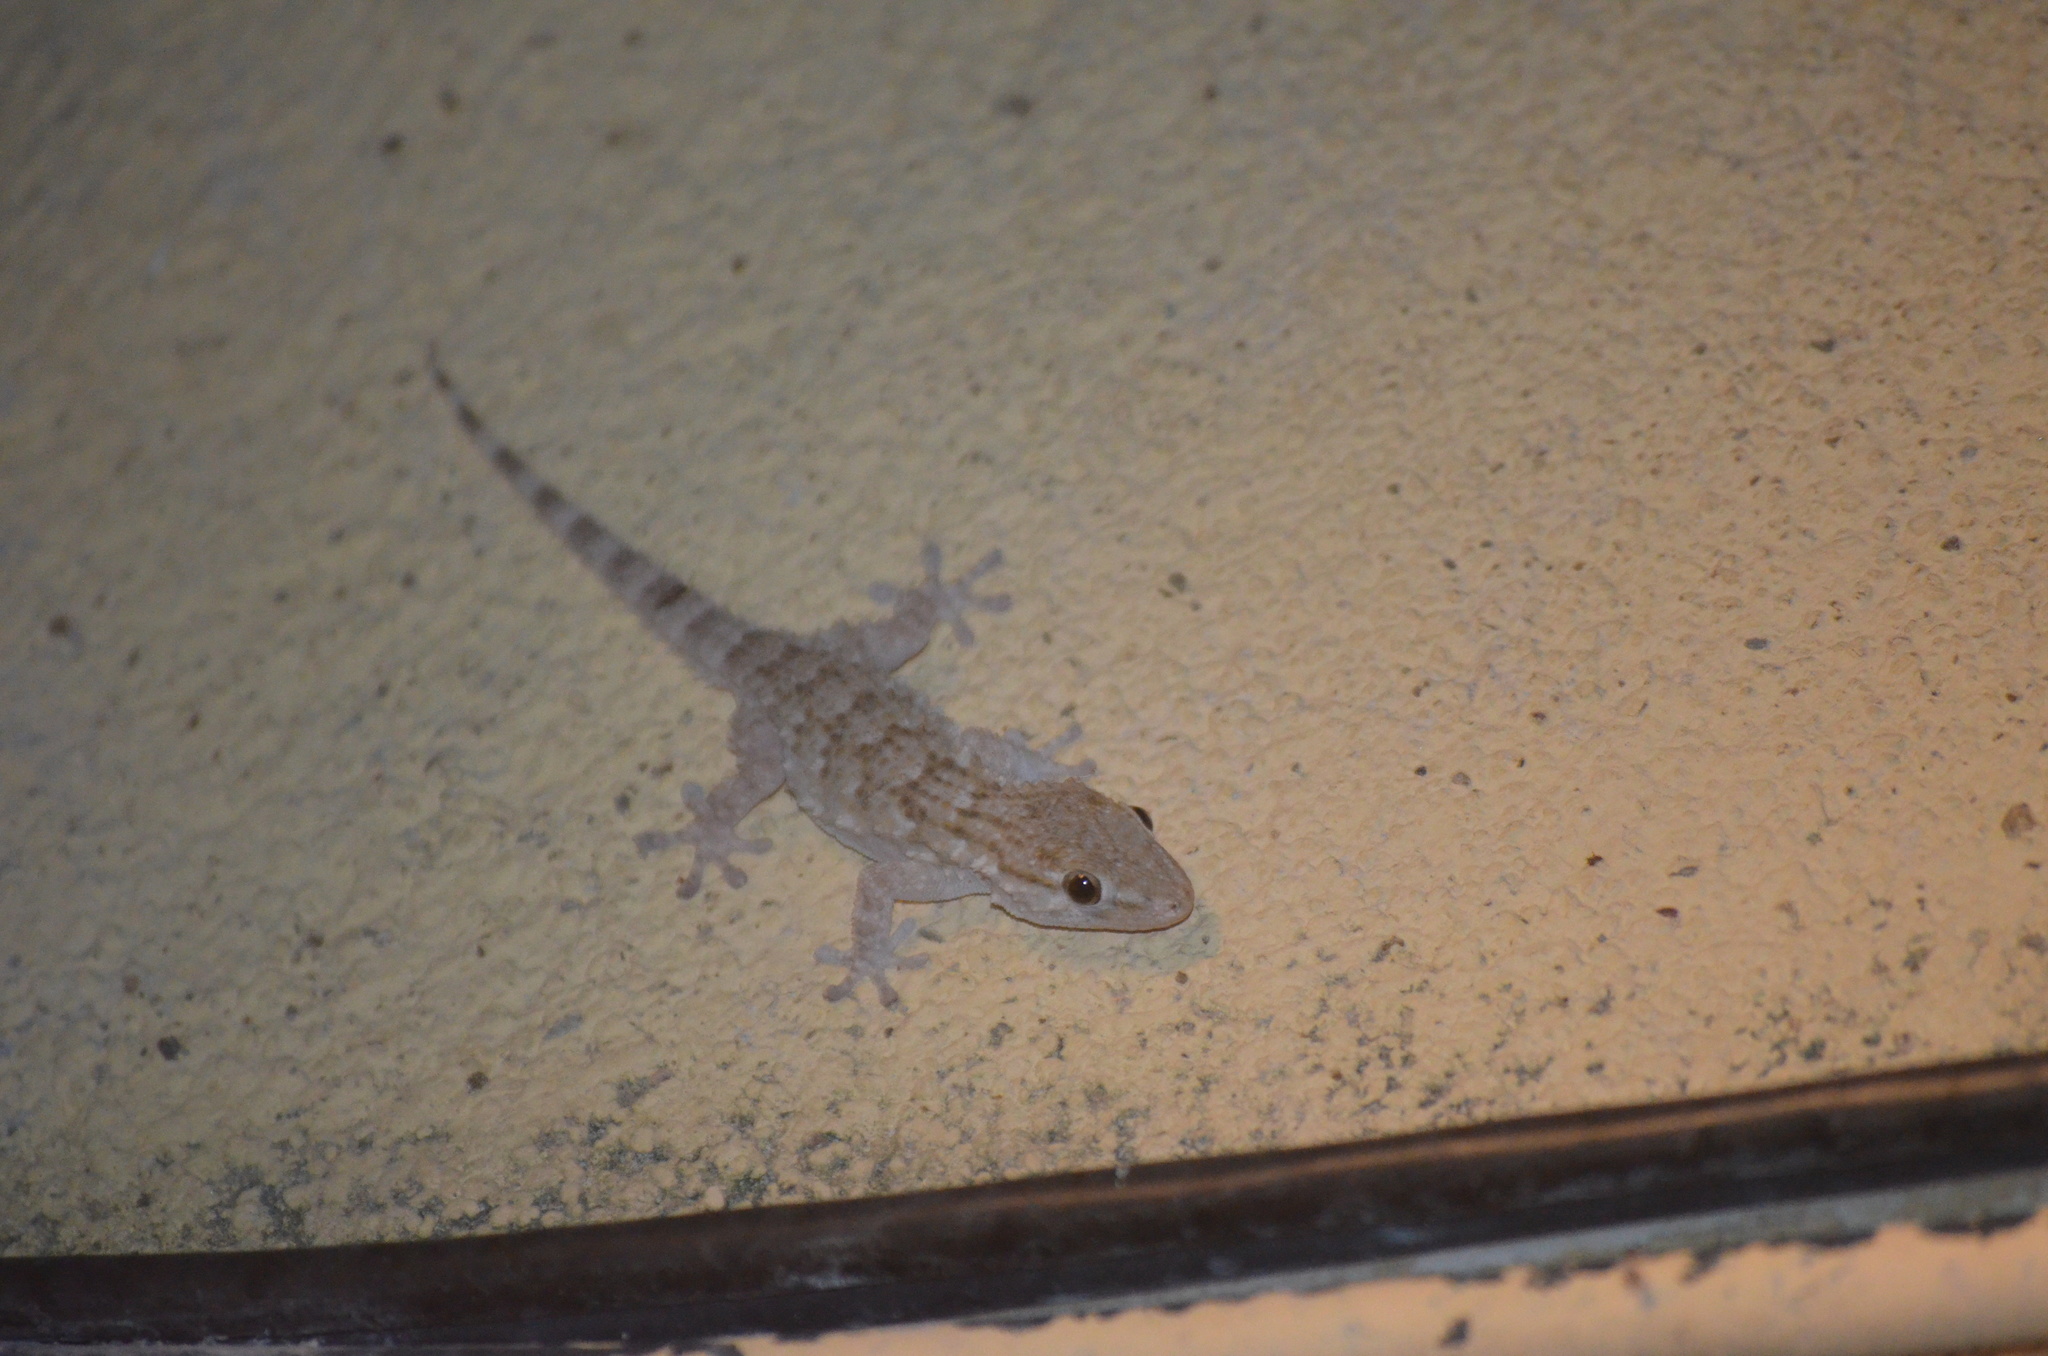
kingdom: Animalia
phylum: Chordata
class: Squamata
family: Phyllodactylidae
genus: Tarentola
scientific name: Tarentola mauritanica
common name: Moorish gecko
